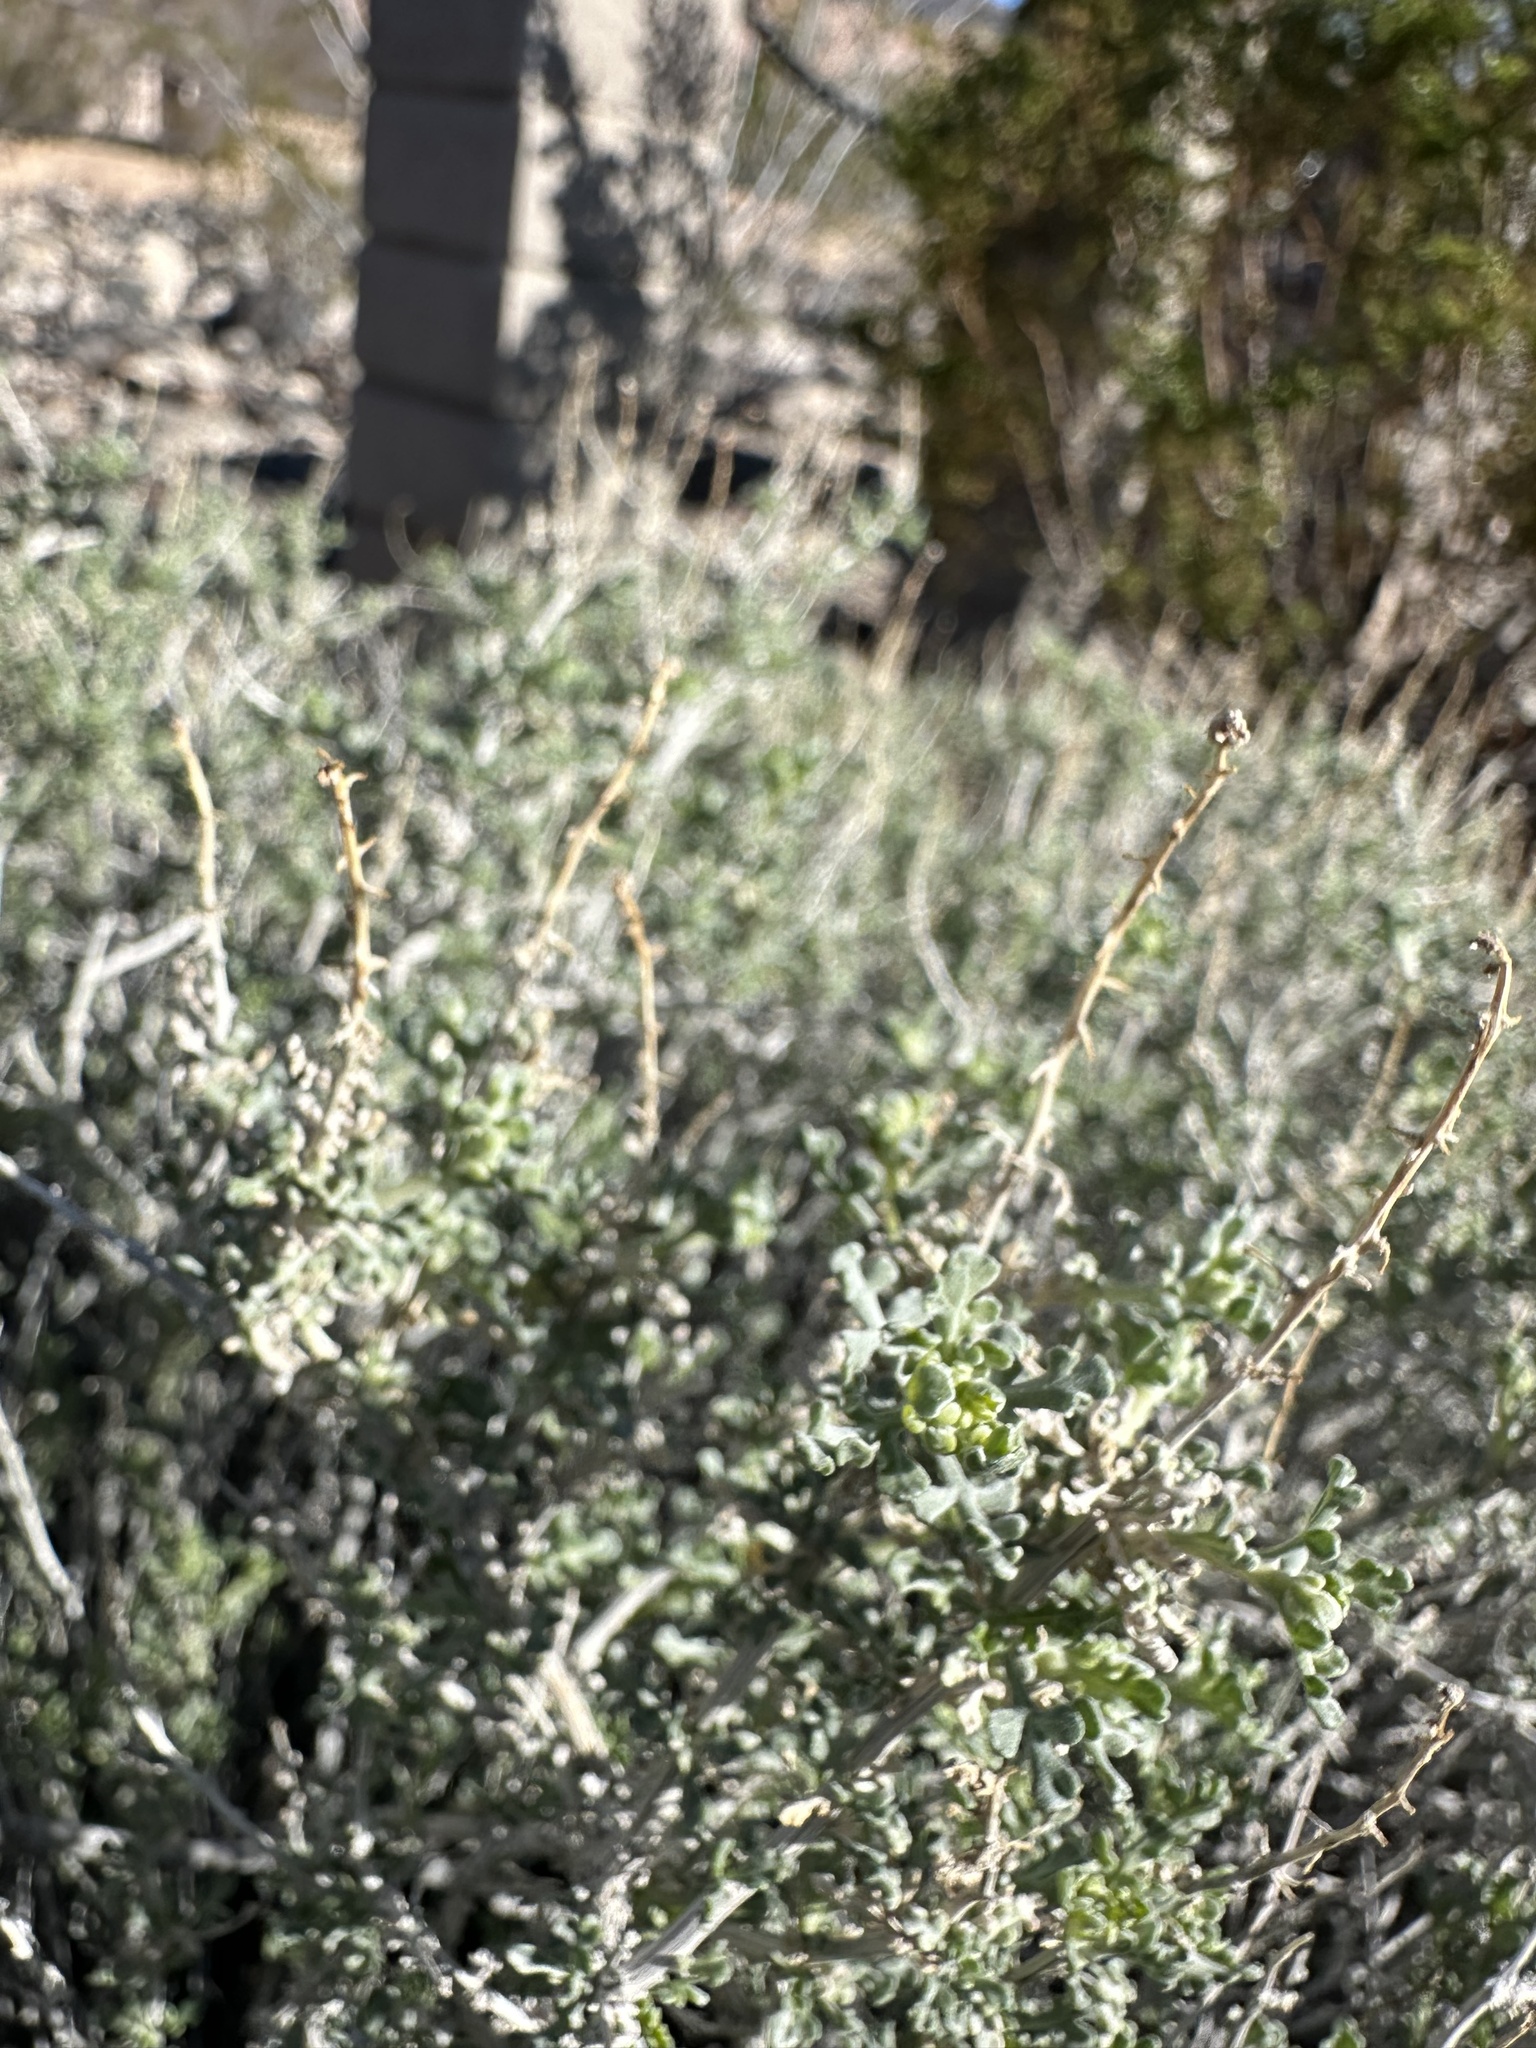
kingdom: Plantae
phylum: Tracheophyta
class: Magnoliopsida
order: Asterales
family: Asteraceae
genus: Ambrosia
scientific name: Ambrosia dumosa
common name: Bur-sage
